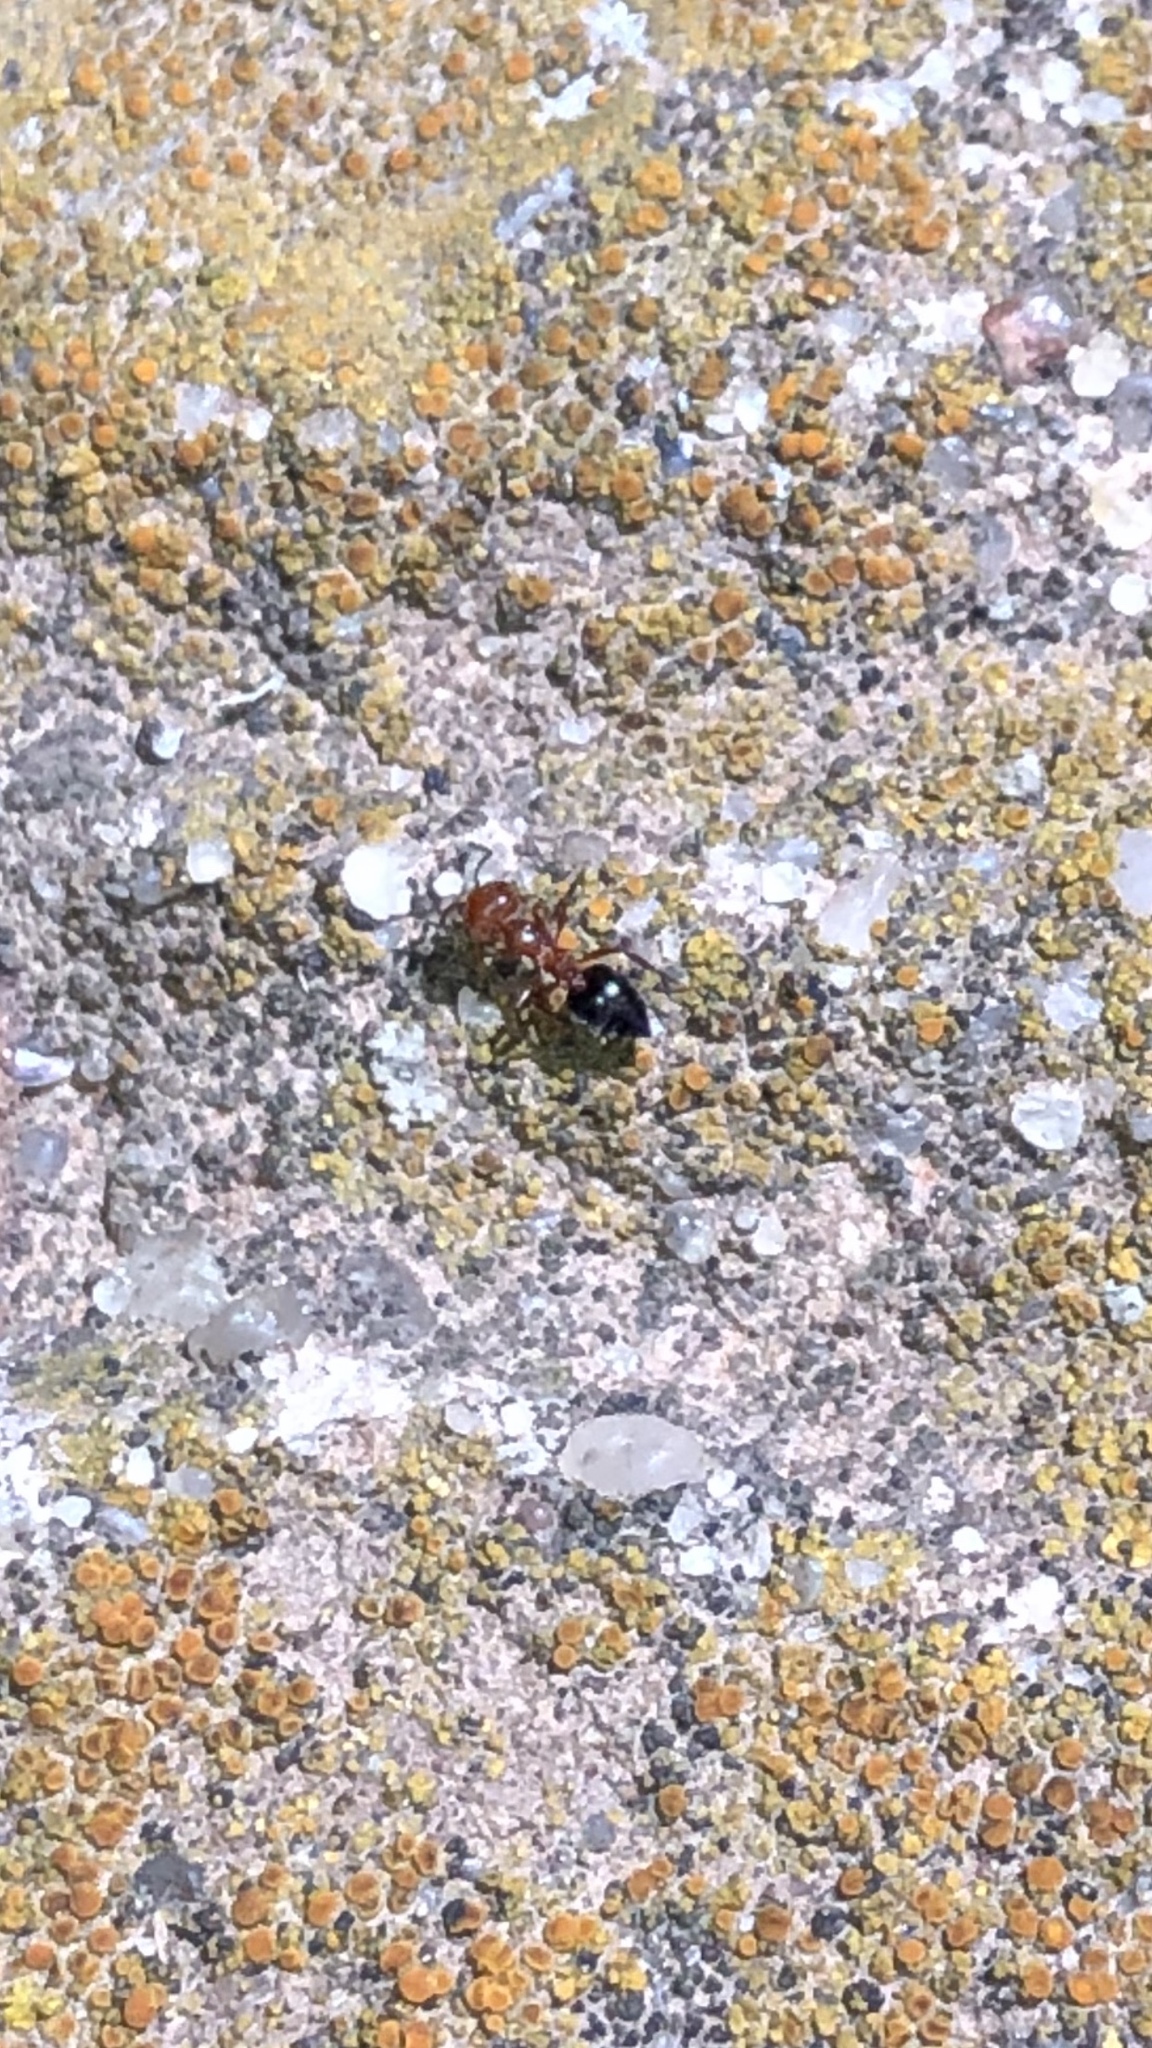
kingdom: Animalia
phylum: Arthropoda
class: Insecta
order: Hymenoptera
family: Formicidae
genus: Crematogaster
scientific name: Crematogaster laeviuscula
